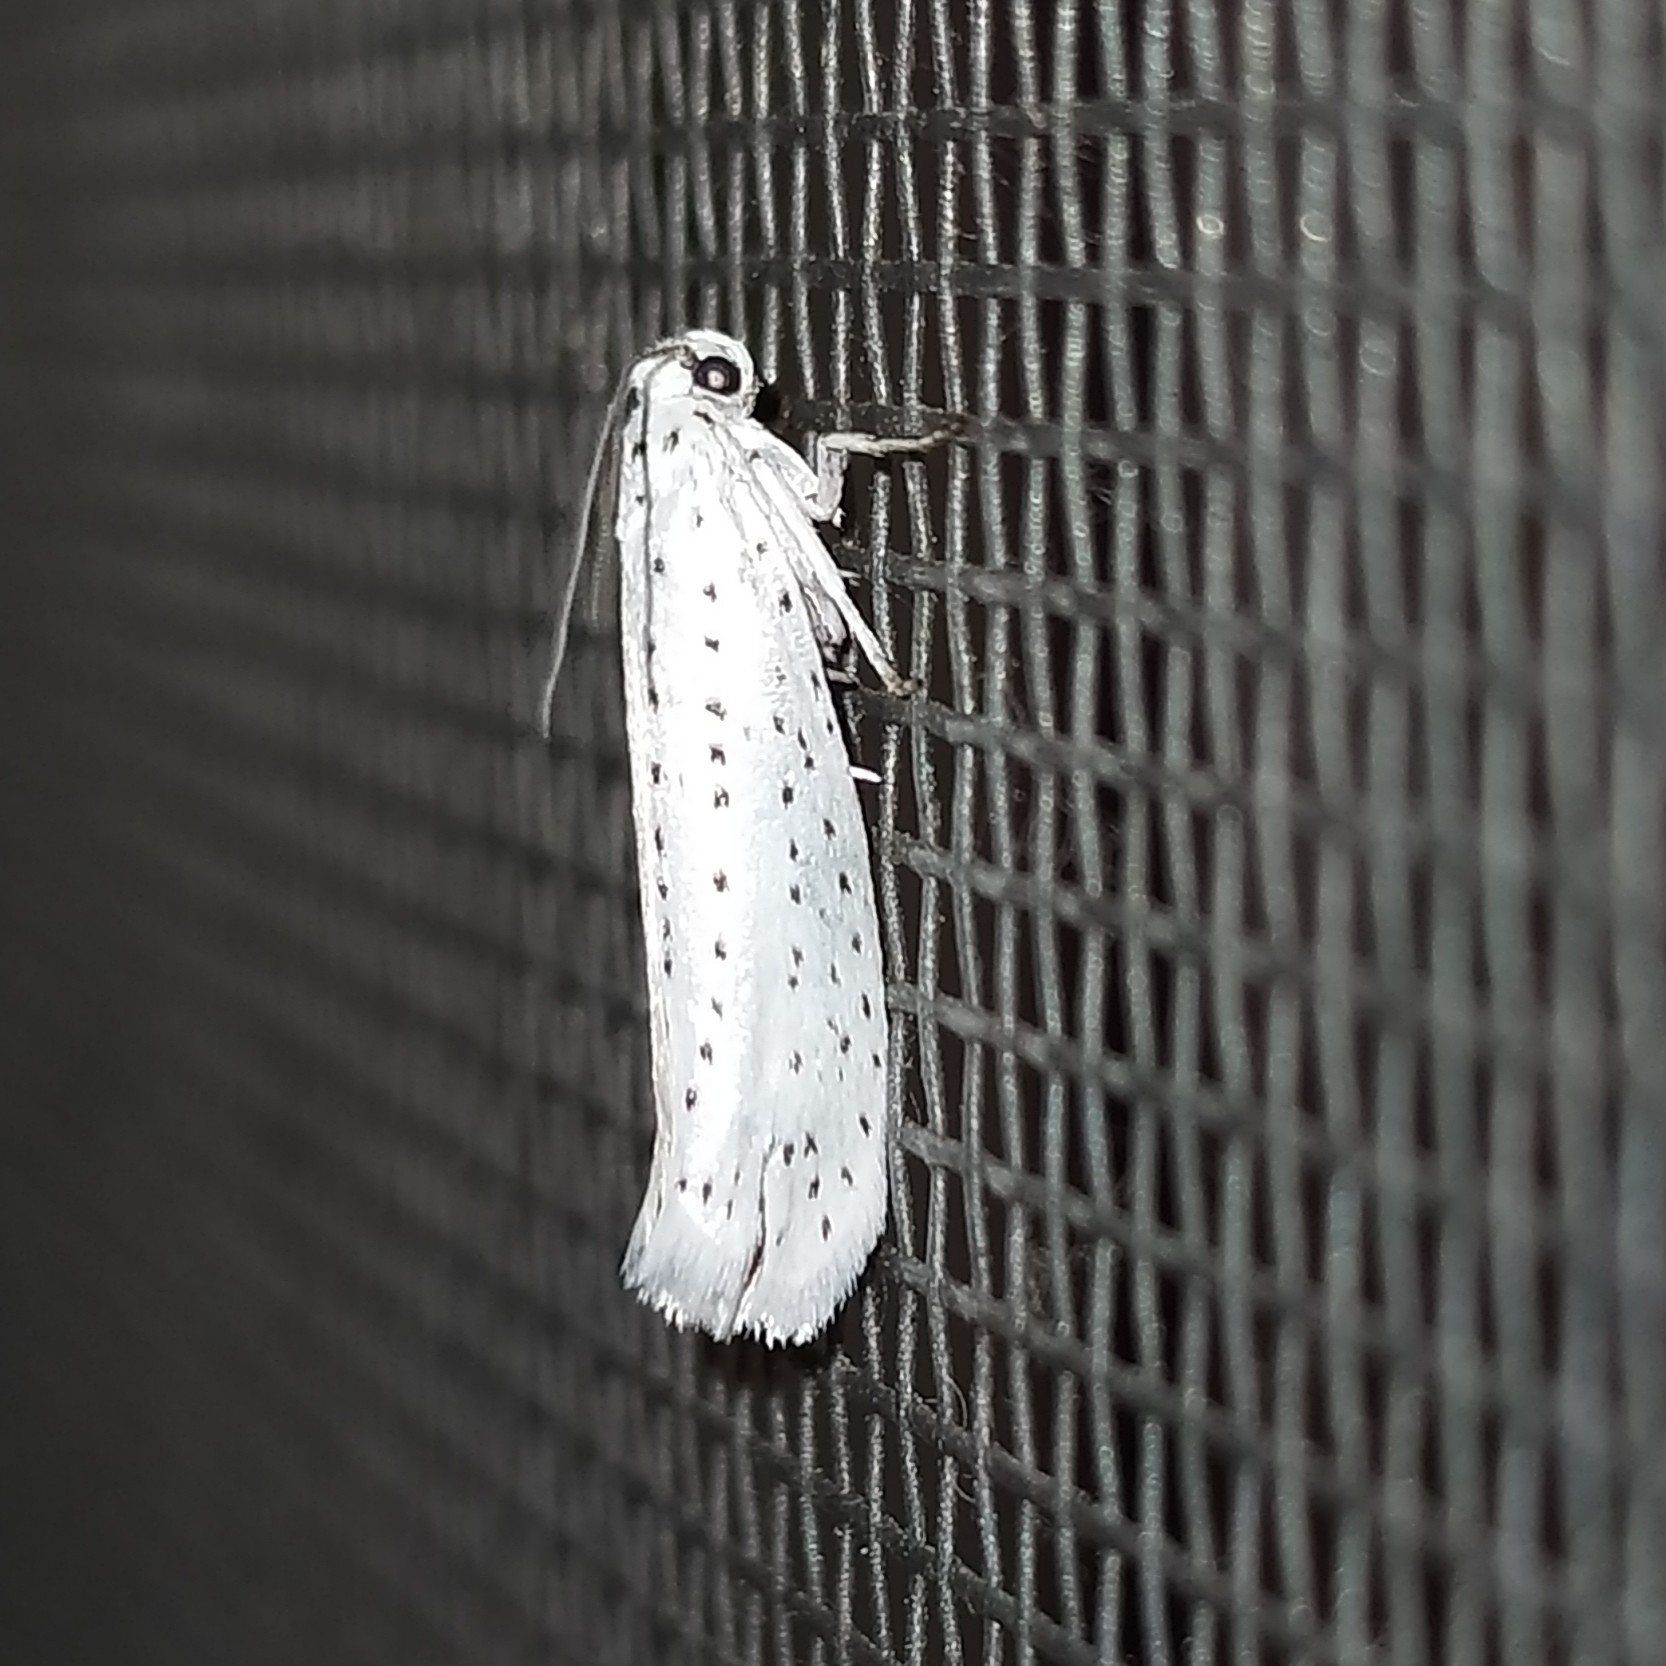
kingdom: Animalia
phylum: Arthropoda
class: Insecta
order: Lepidoptera
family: Yponomeutidae
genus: Yponomeuta
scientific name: Yponomeuta evonymella
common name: Bird-cherry ermine
